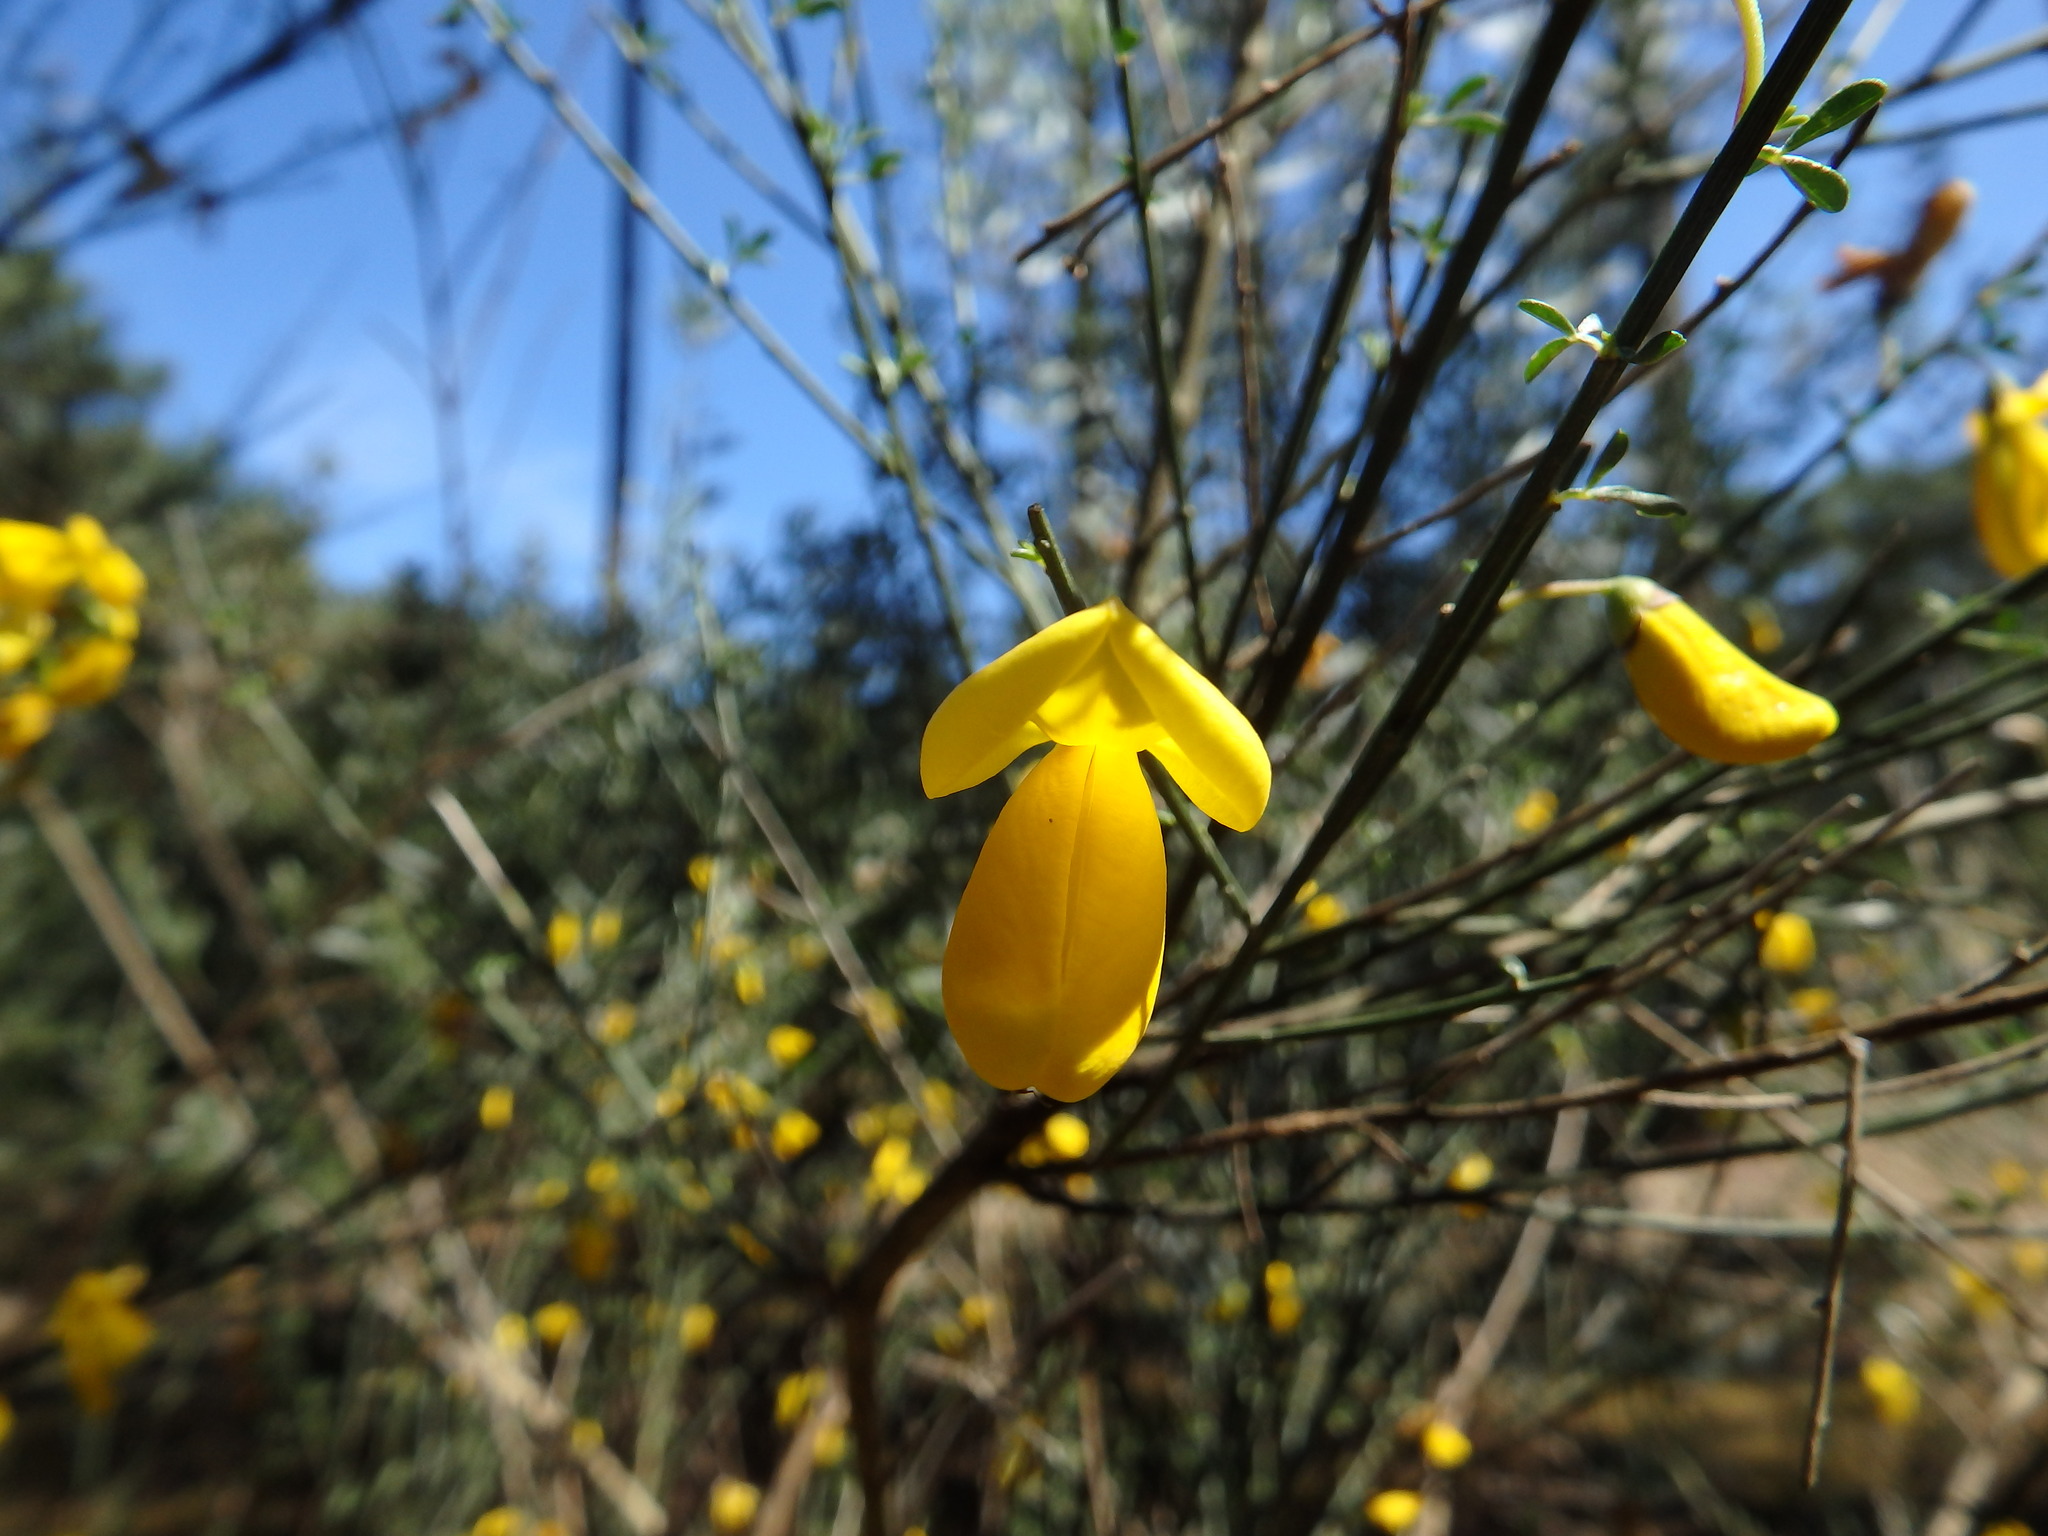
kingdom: Plantae
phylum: Tracheophyta
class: Magnoliopsida
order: Fabales
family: Fabaceae
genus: Cytisus
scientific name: Cytisus striatus
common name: Hairy-fruited broom
